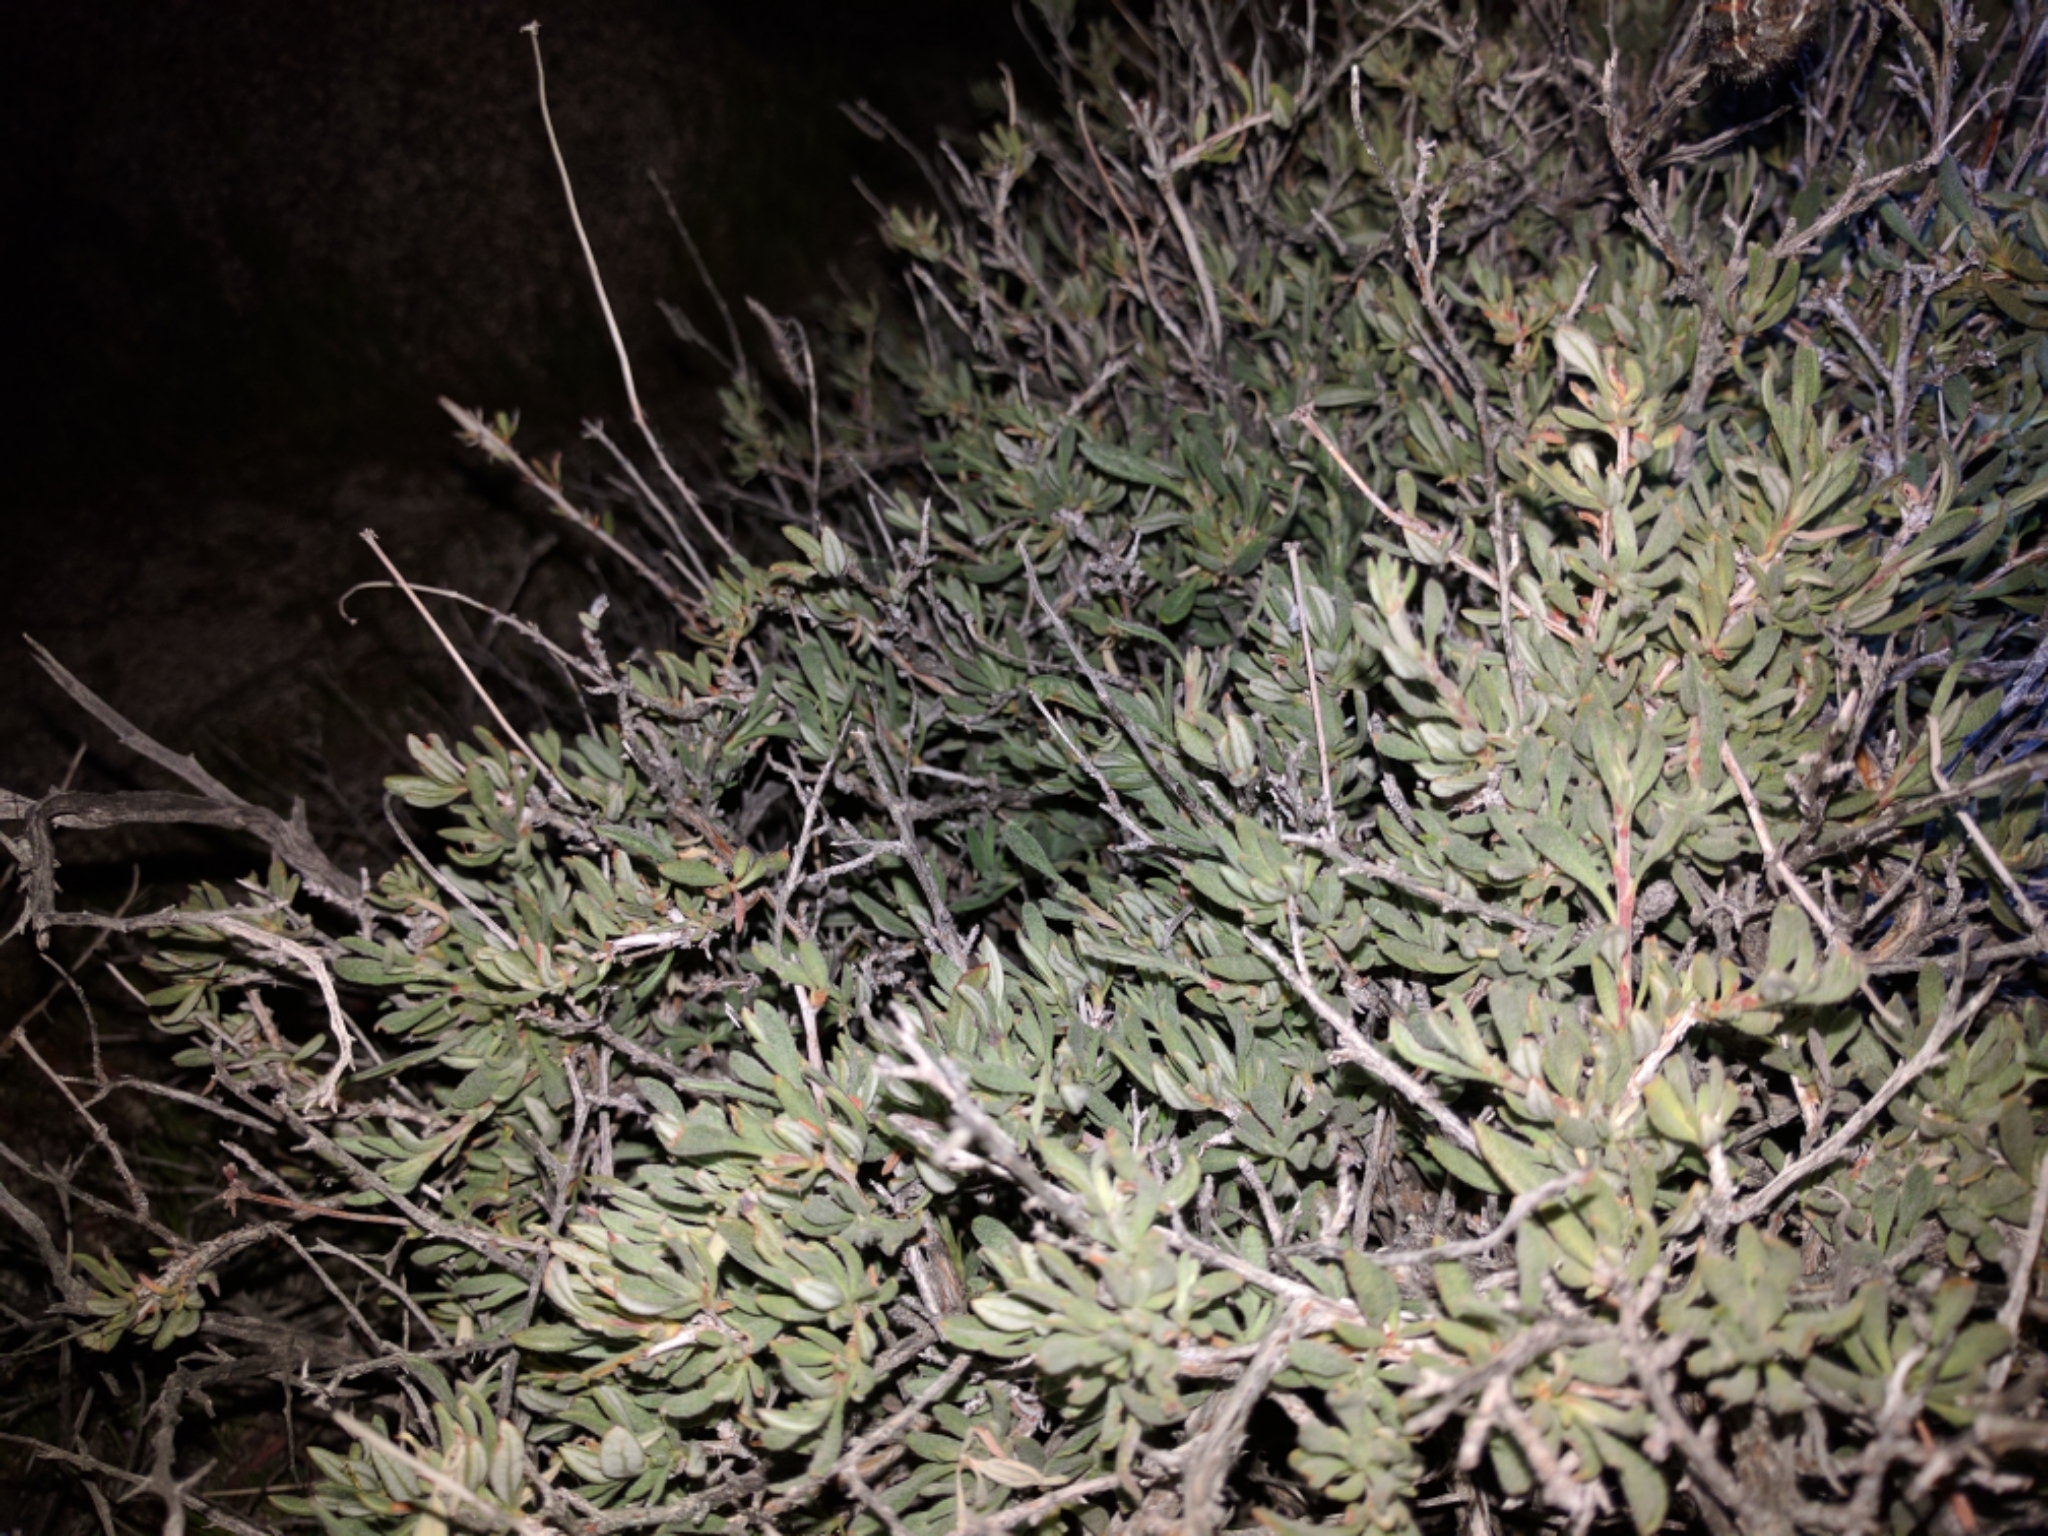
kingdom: Plantae
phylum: Tracheophyta
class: Magnoliopsida
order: Caryophyllales
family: Polygonaceae
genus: Eriogonum
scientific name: Eriogonum fasciculatum
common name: California wild buckwheat
